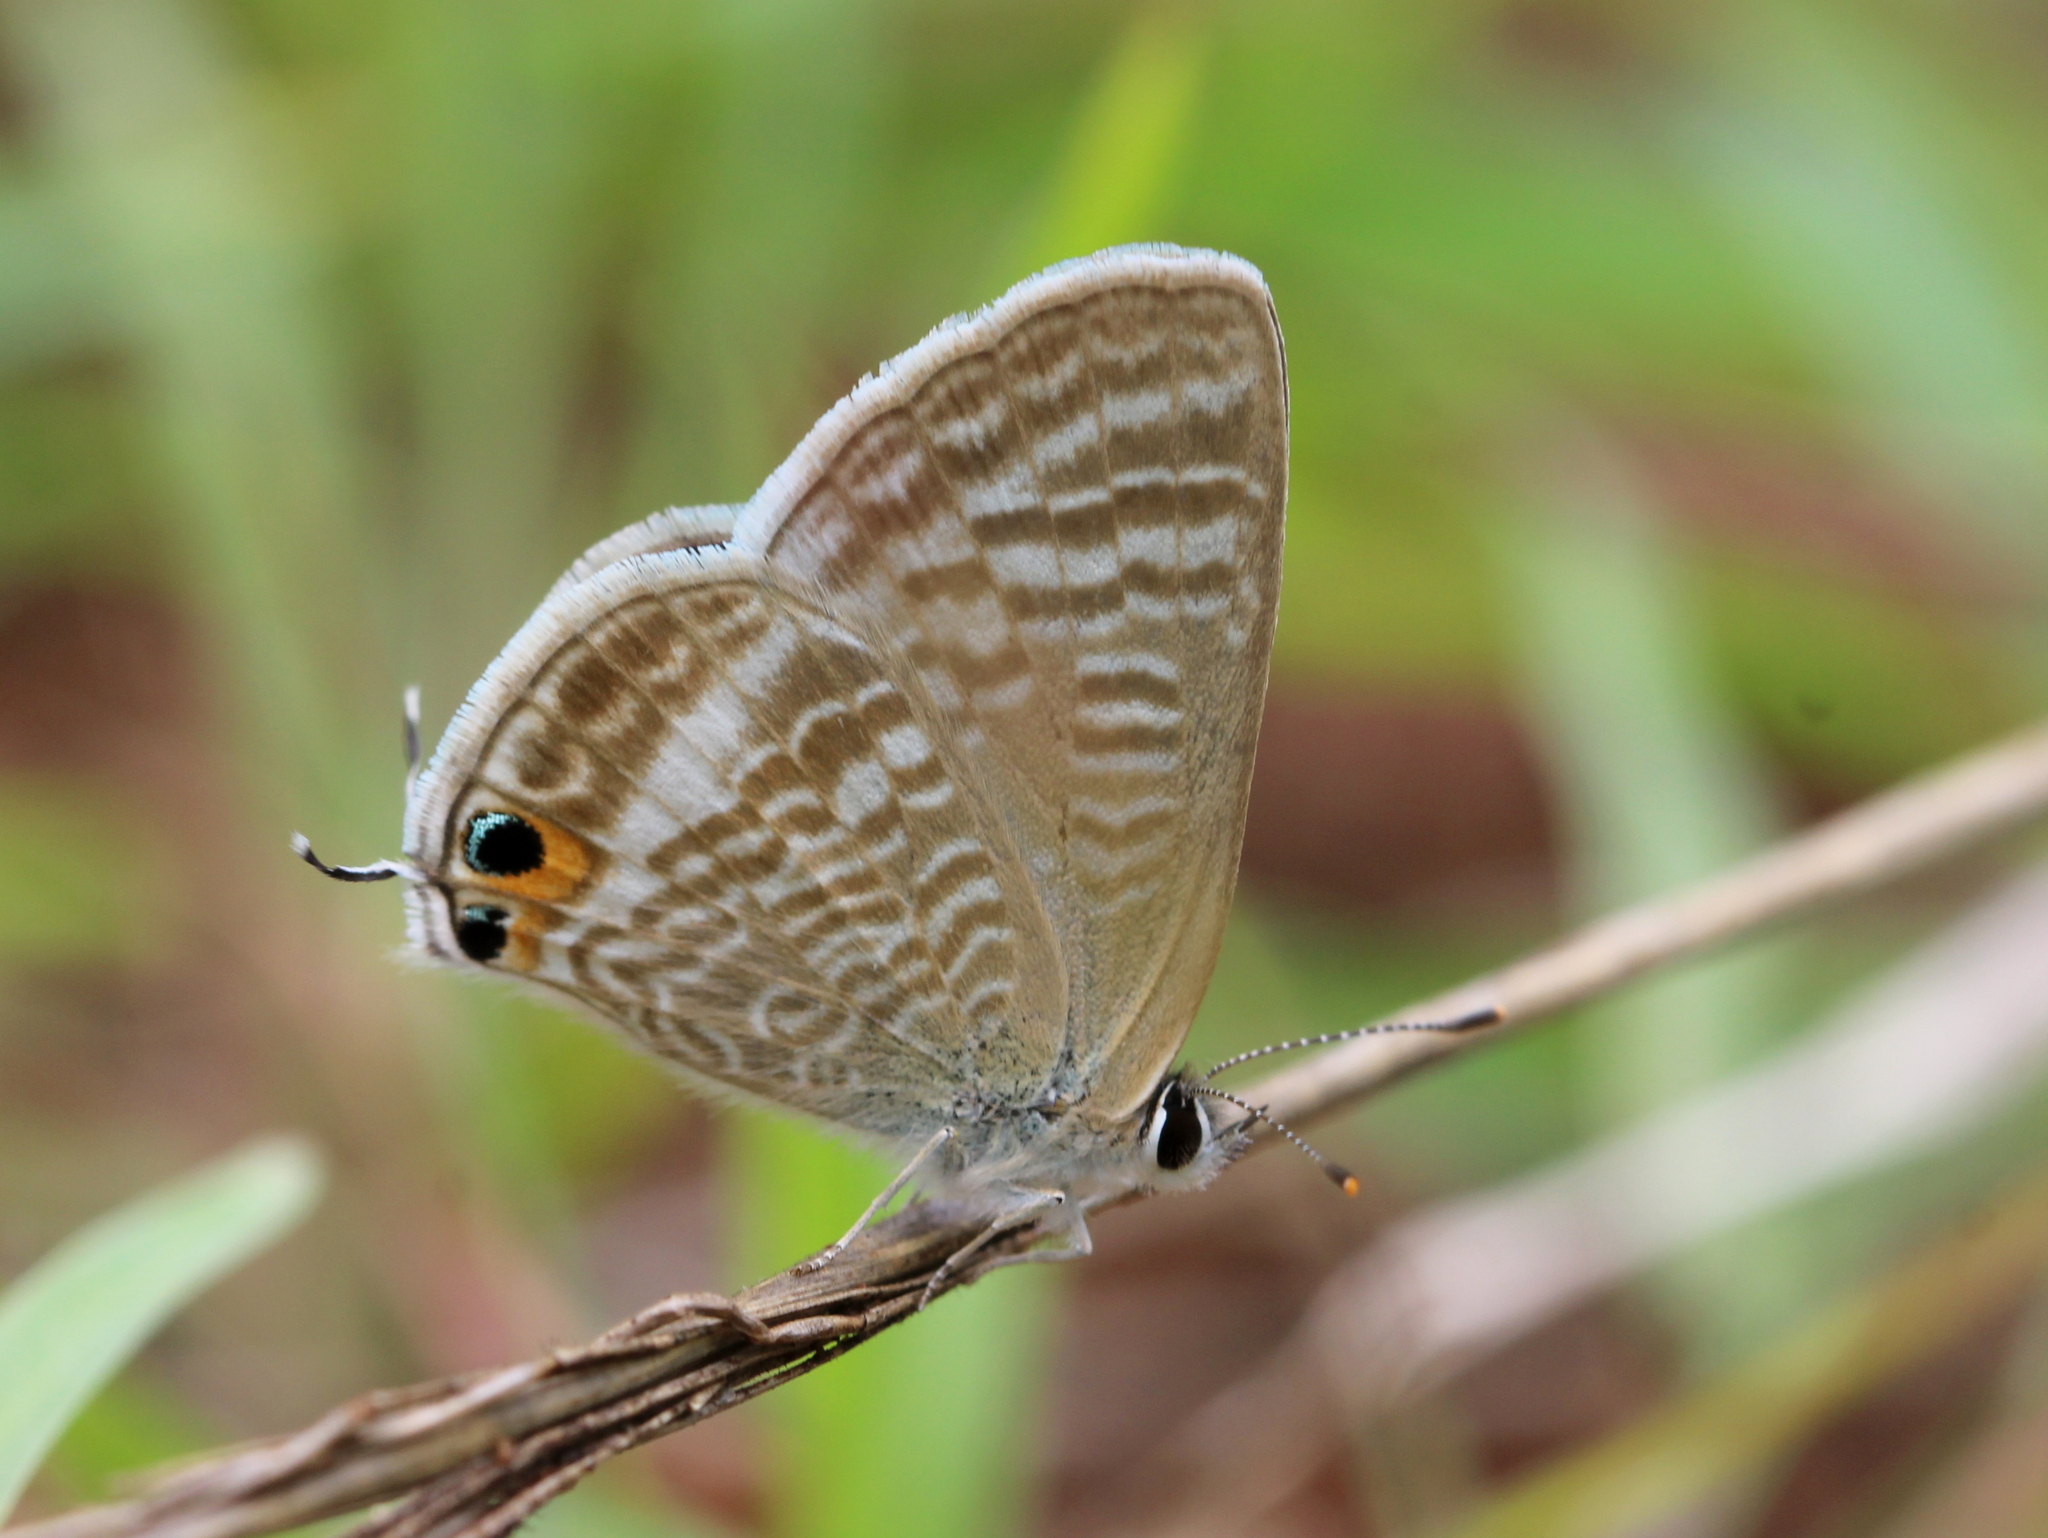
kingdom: Animalia
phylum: Arthropoda
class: Insecta
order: Lepidoptera
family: Lycaenidae
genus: Lampides
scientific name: Lampides boeticus
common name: Long-tailed blue
